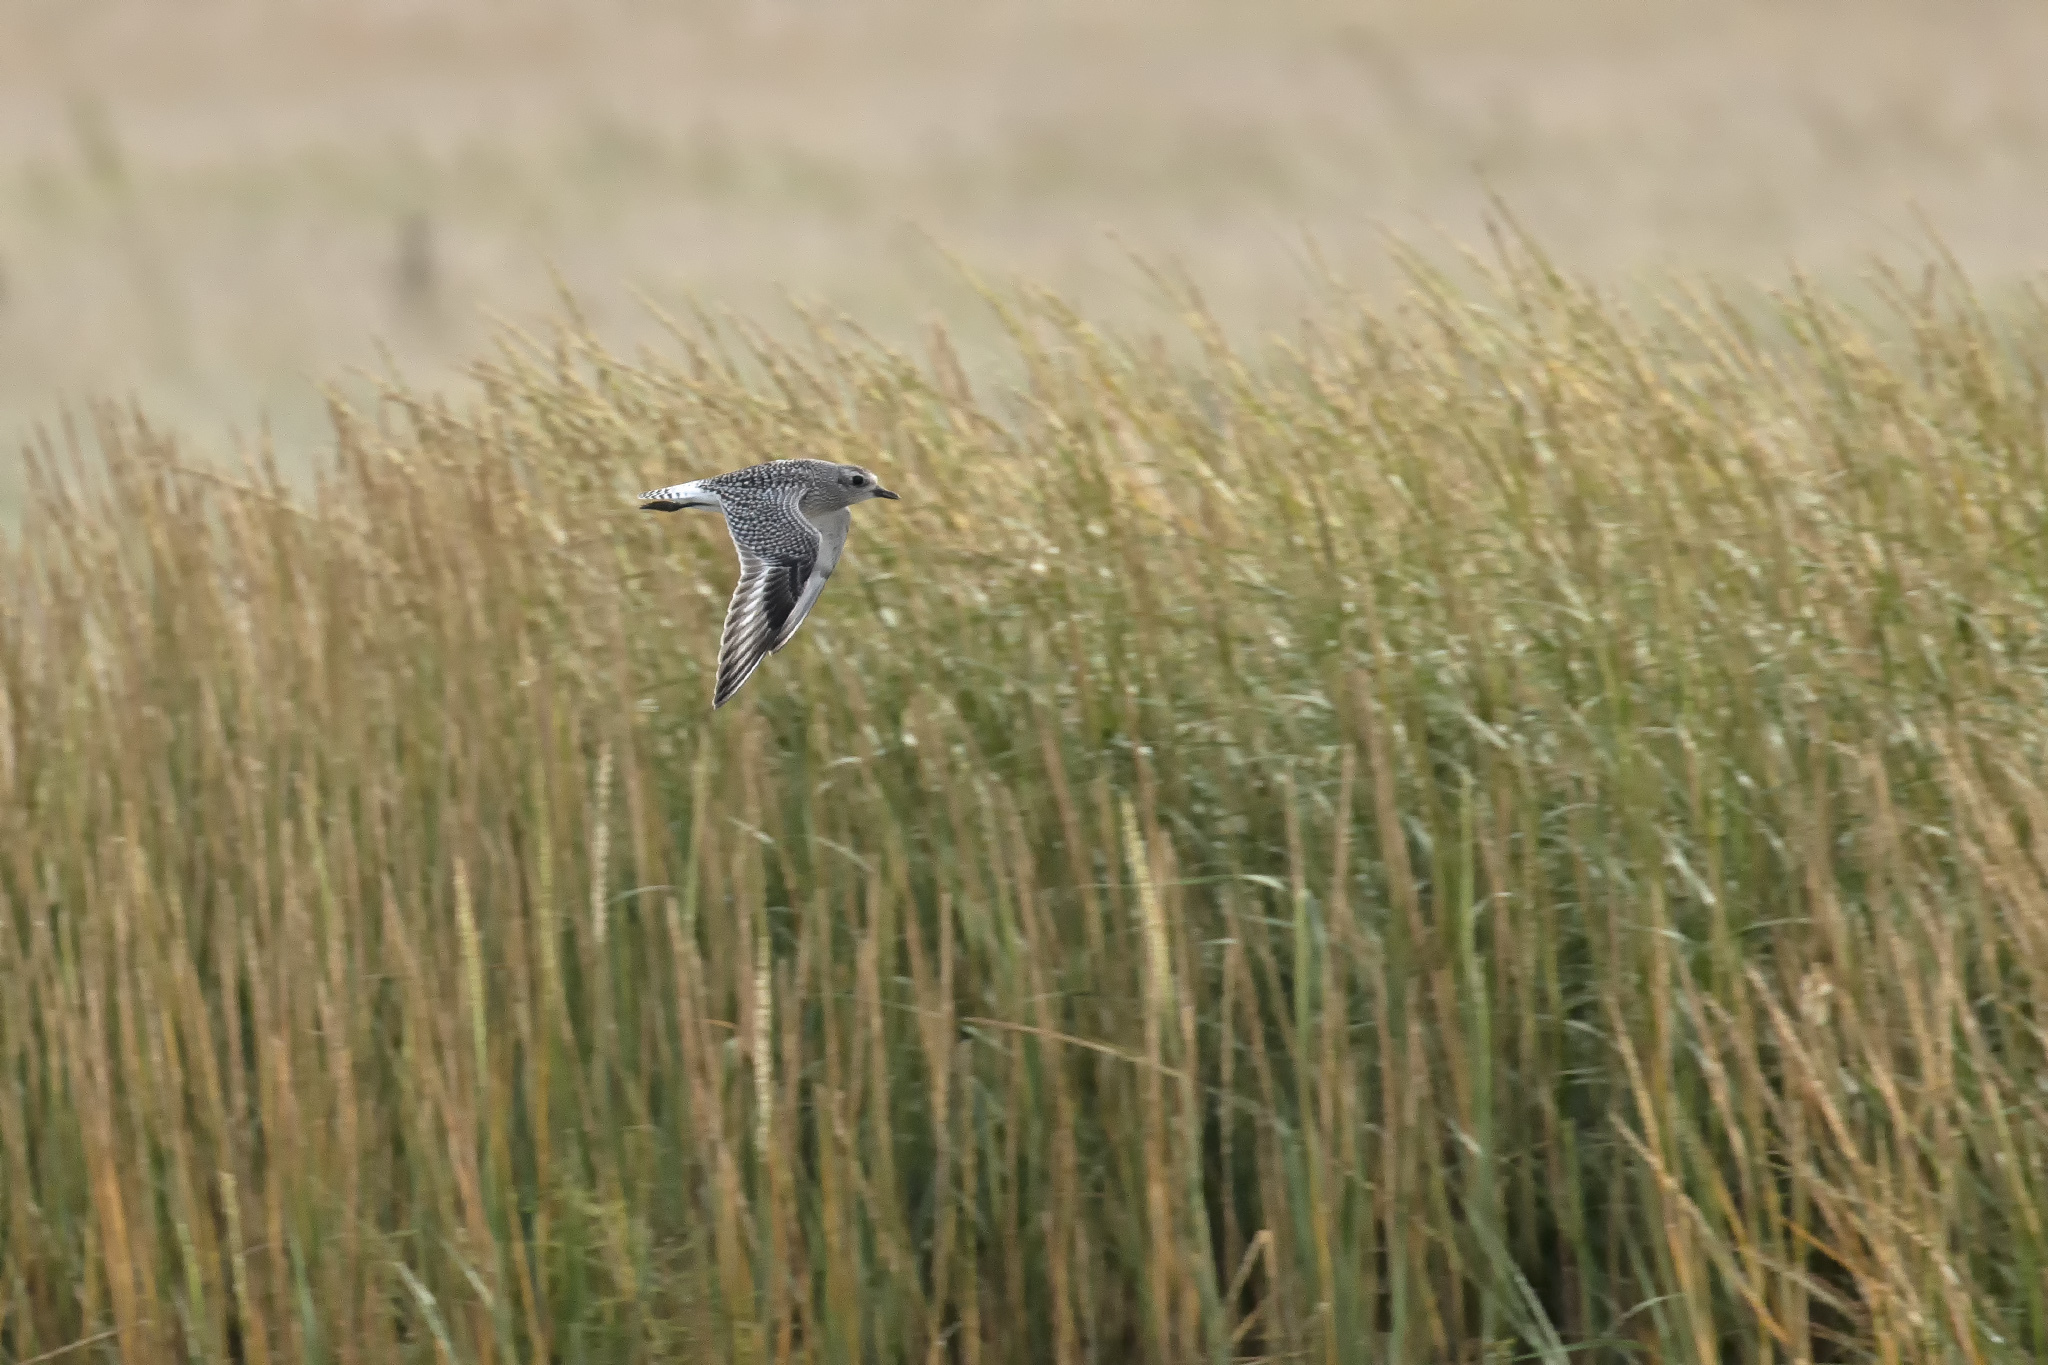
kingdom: Animalia
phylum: Chordata
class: Aves
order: Charadriiformes
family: Charadriidae
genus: Pluvialis
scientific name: Pluvialis squatarola
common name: Grey plover
